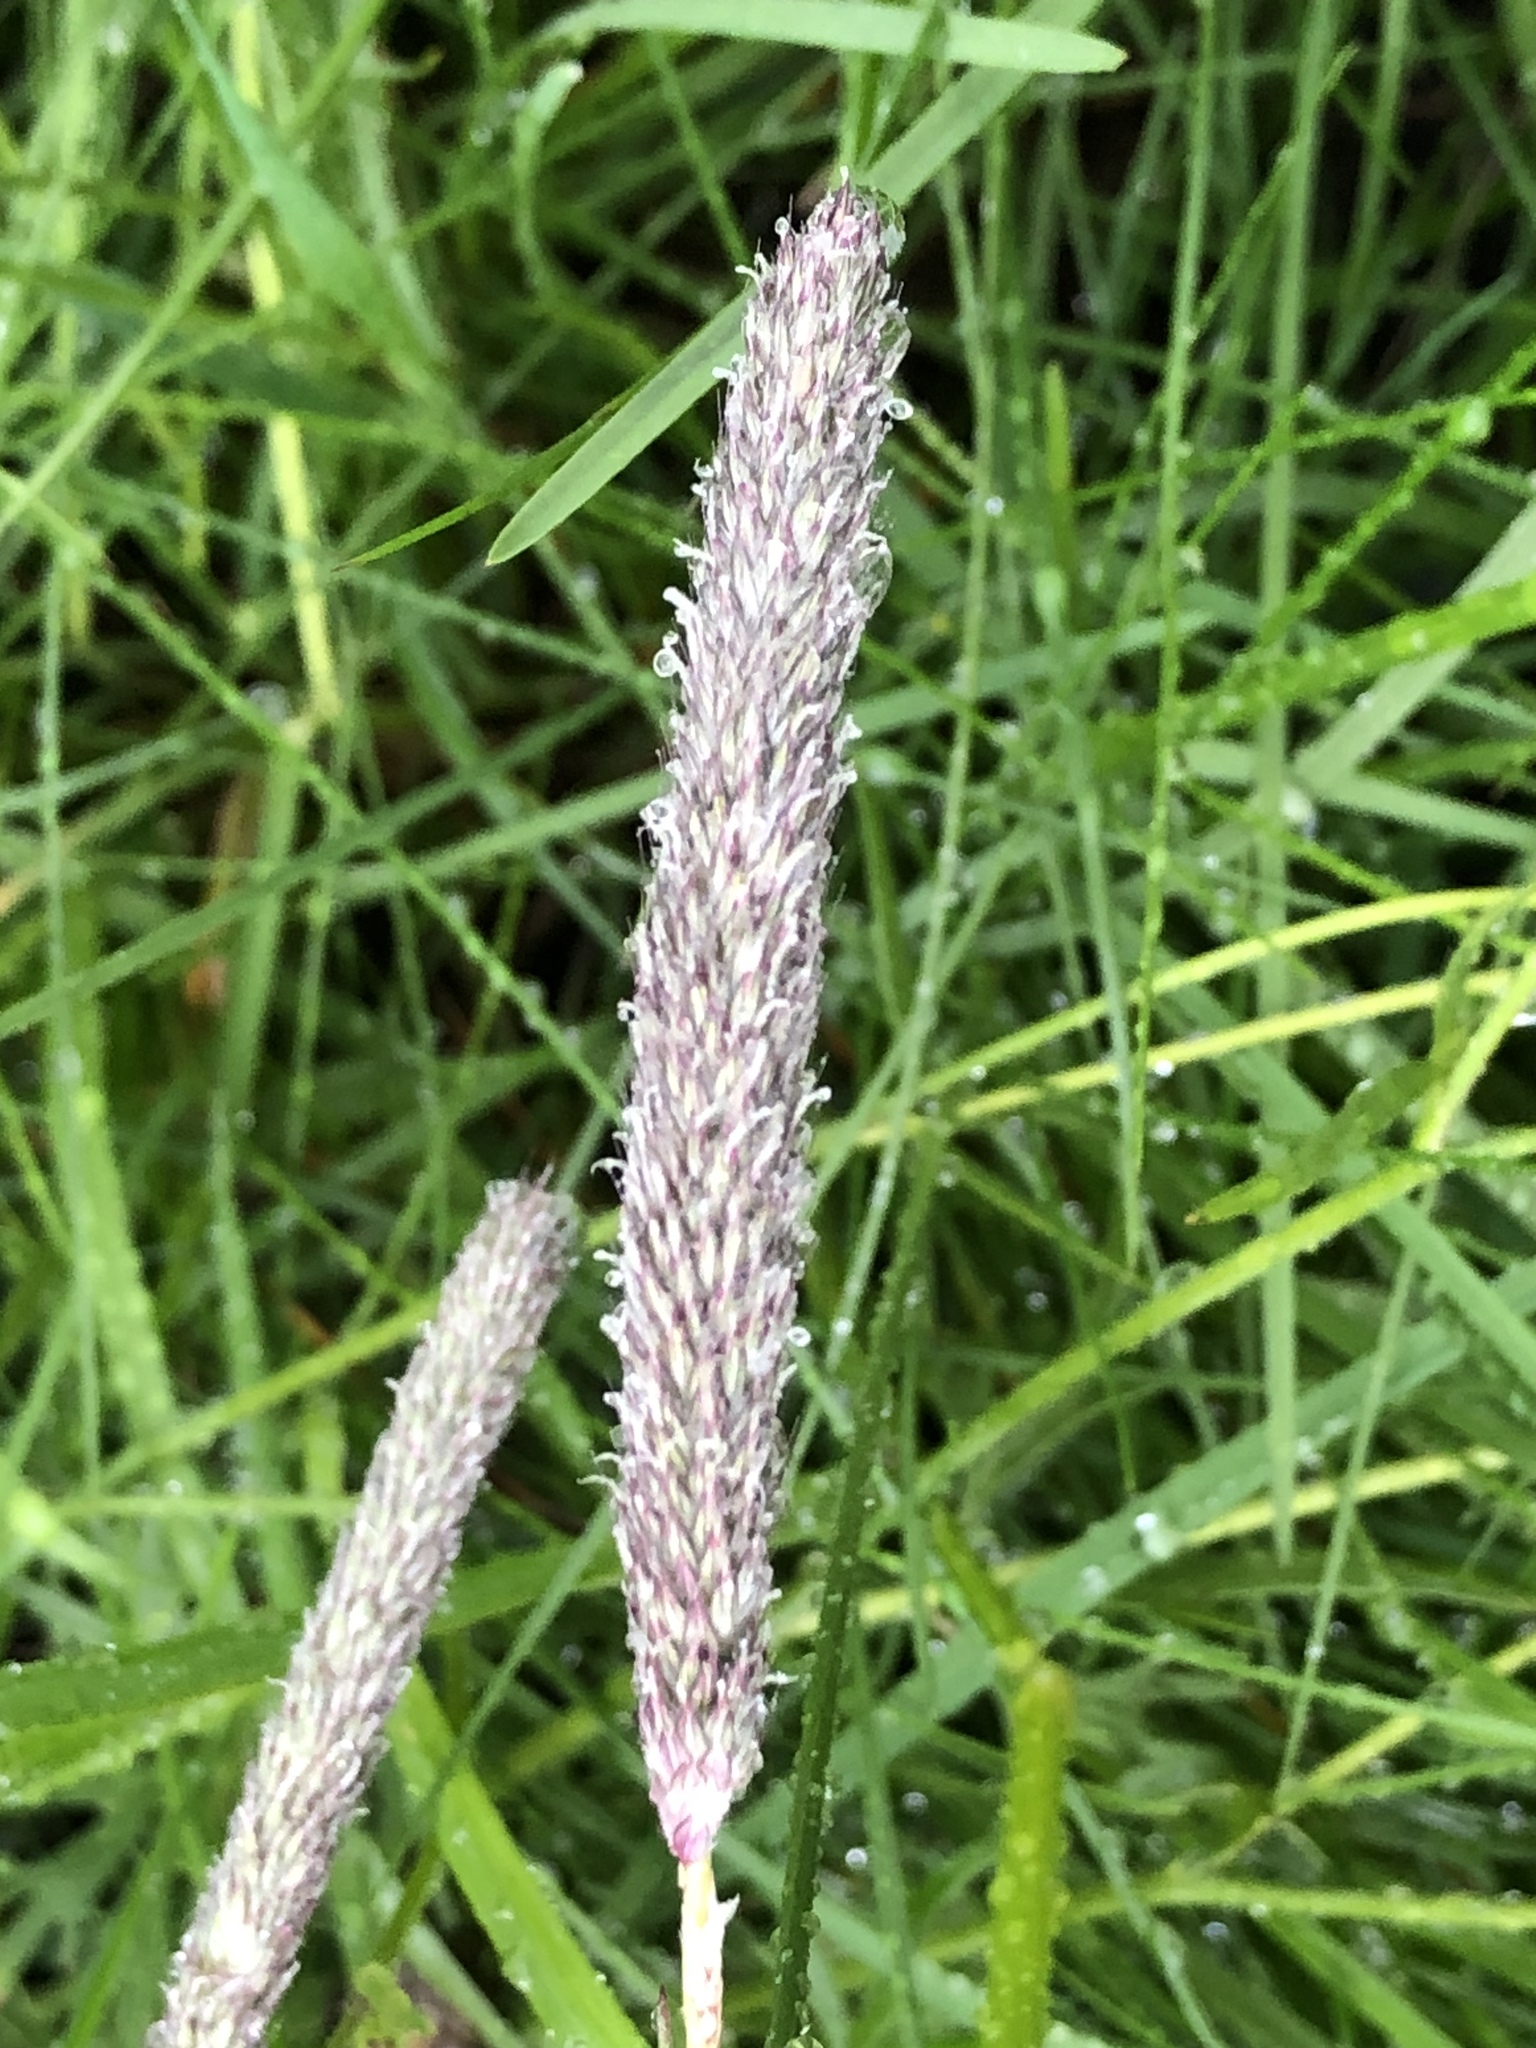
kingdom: Plantae
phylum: Tracheophyta
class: Liliopsida
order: Poales
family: Poaceae
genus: Alopecurus
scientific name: Alopecurus pratensis
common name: Meadow foxtail
